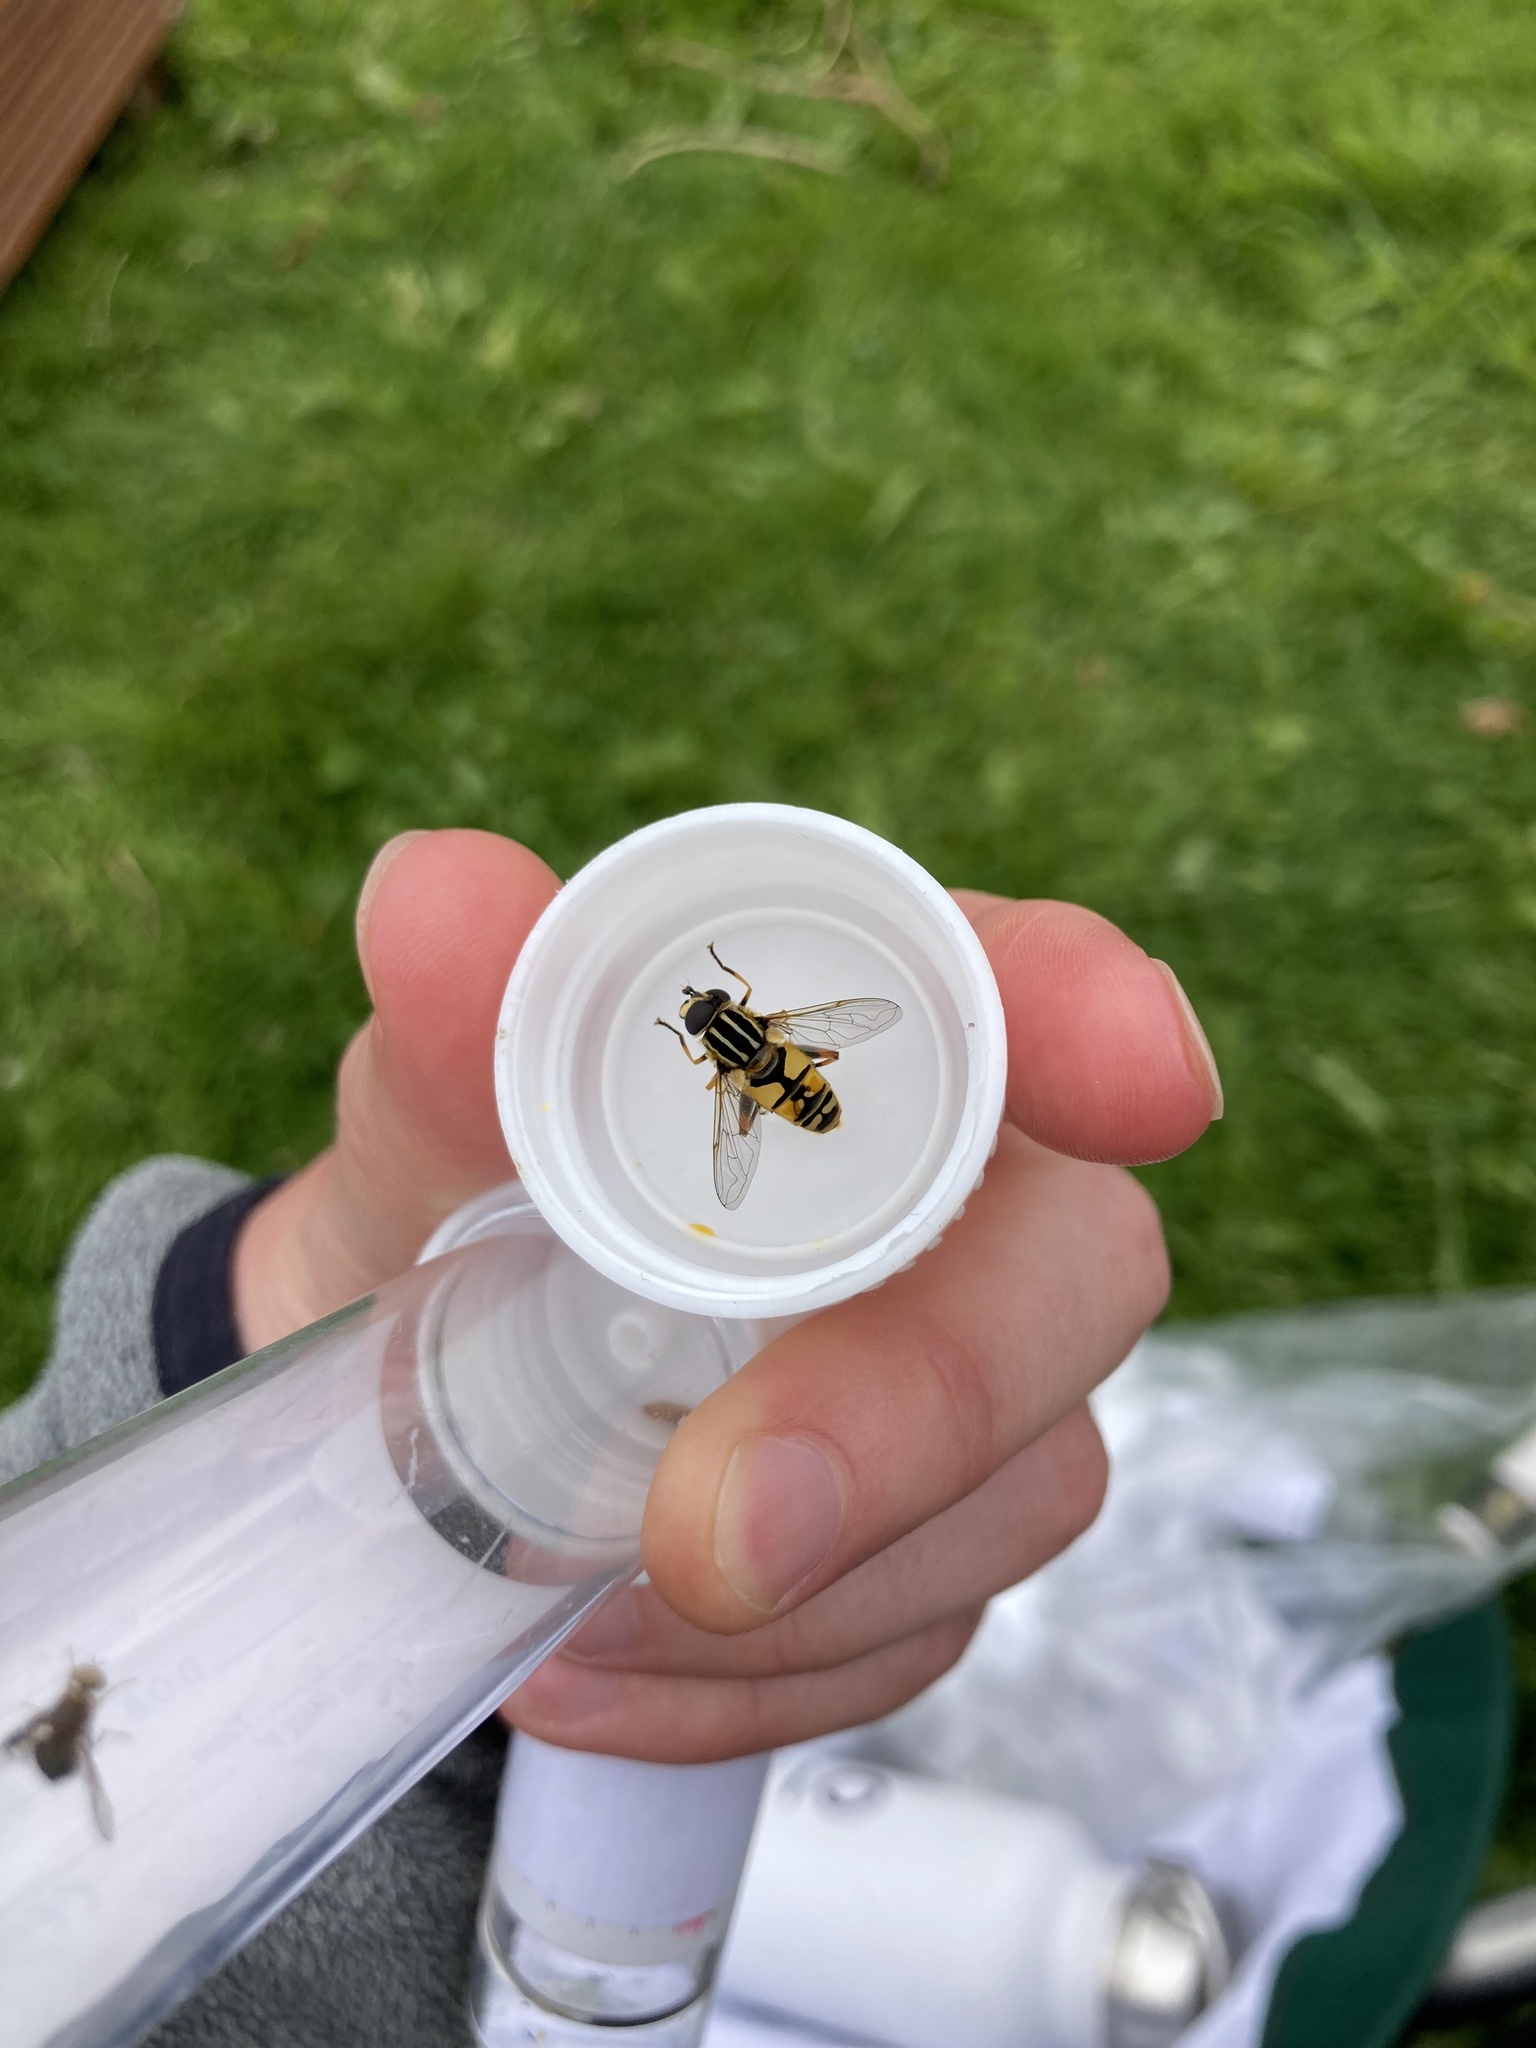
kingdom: Animalia
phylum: Arthropoda
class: Insecta
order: Diptera
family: Syrphidae
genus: Helophilus
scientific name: Helophilus pendulus
